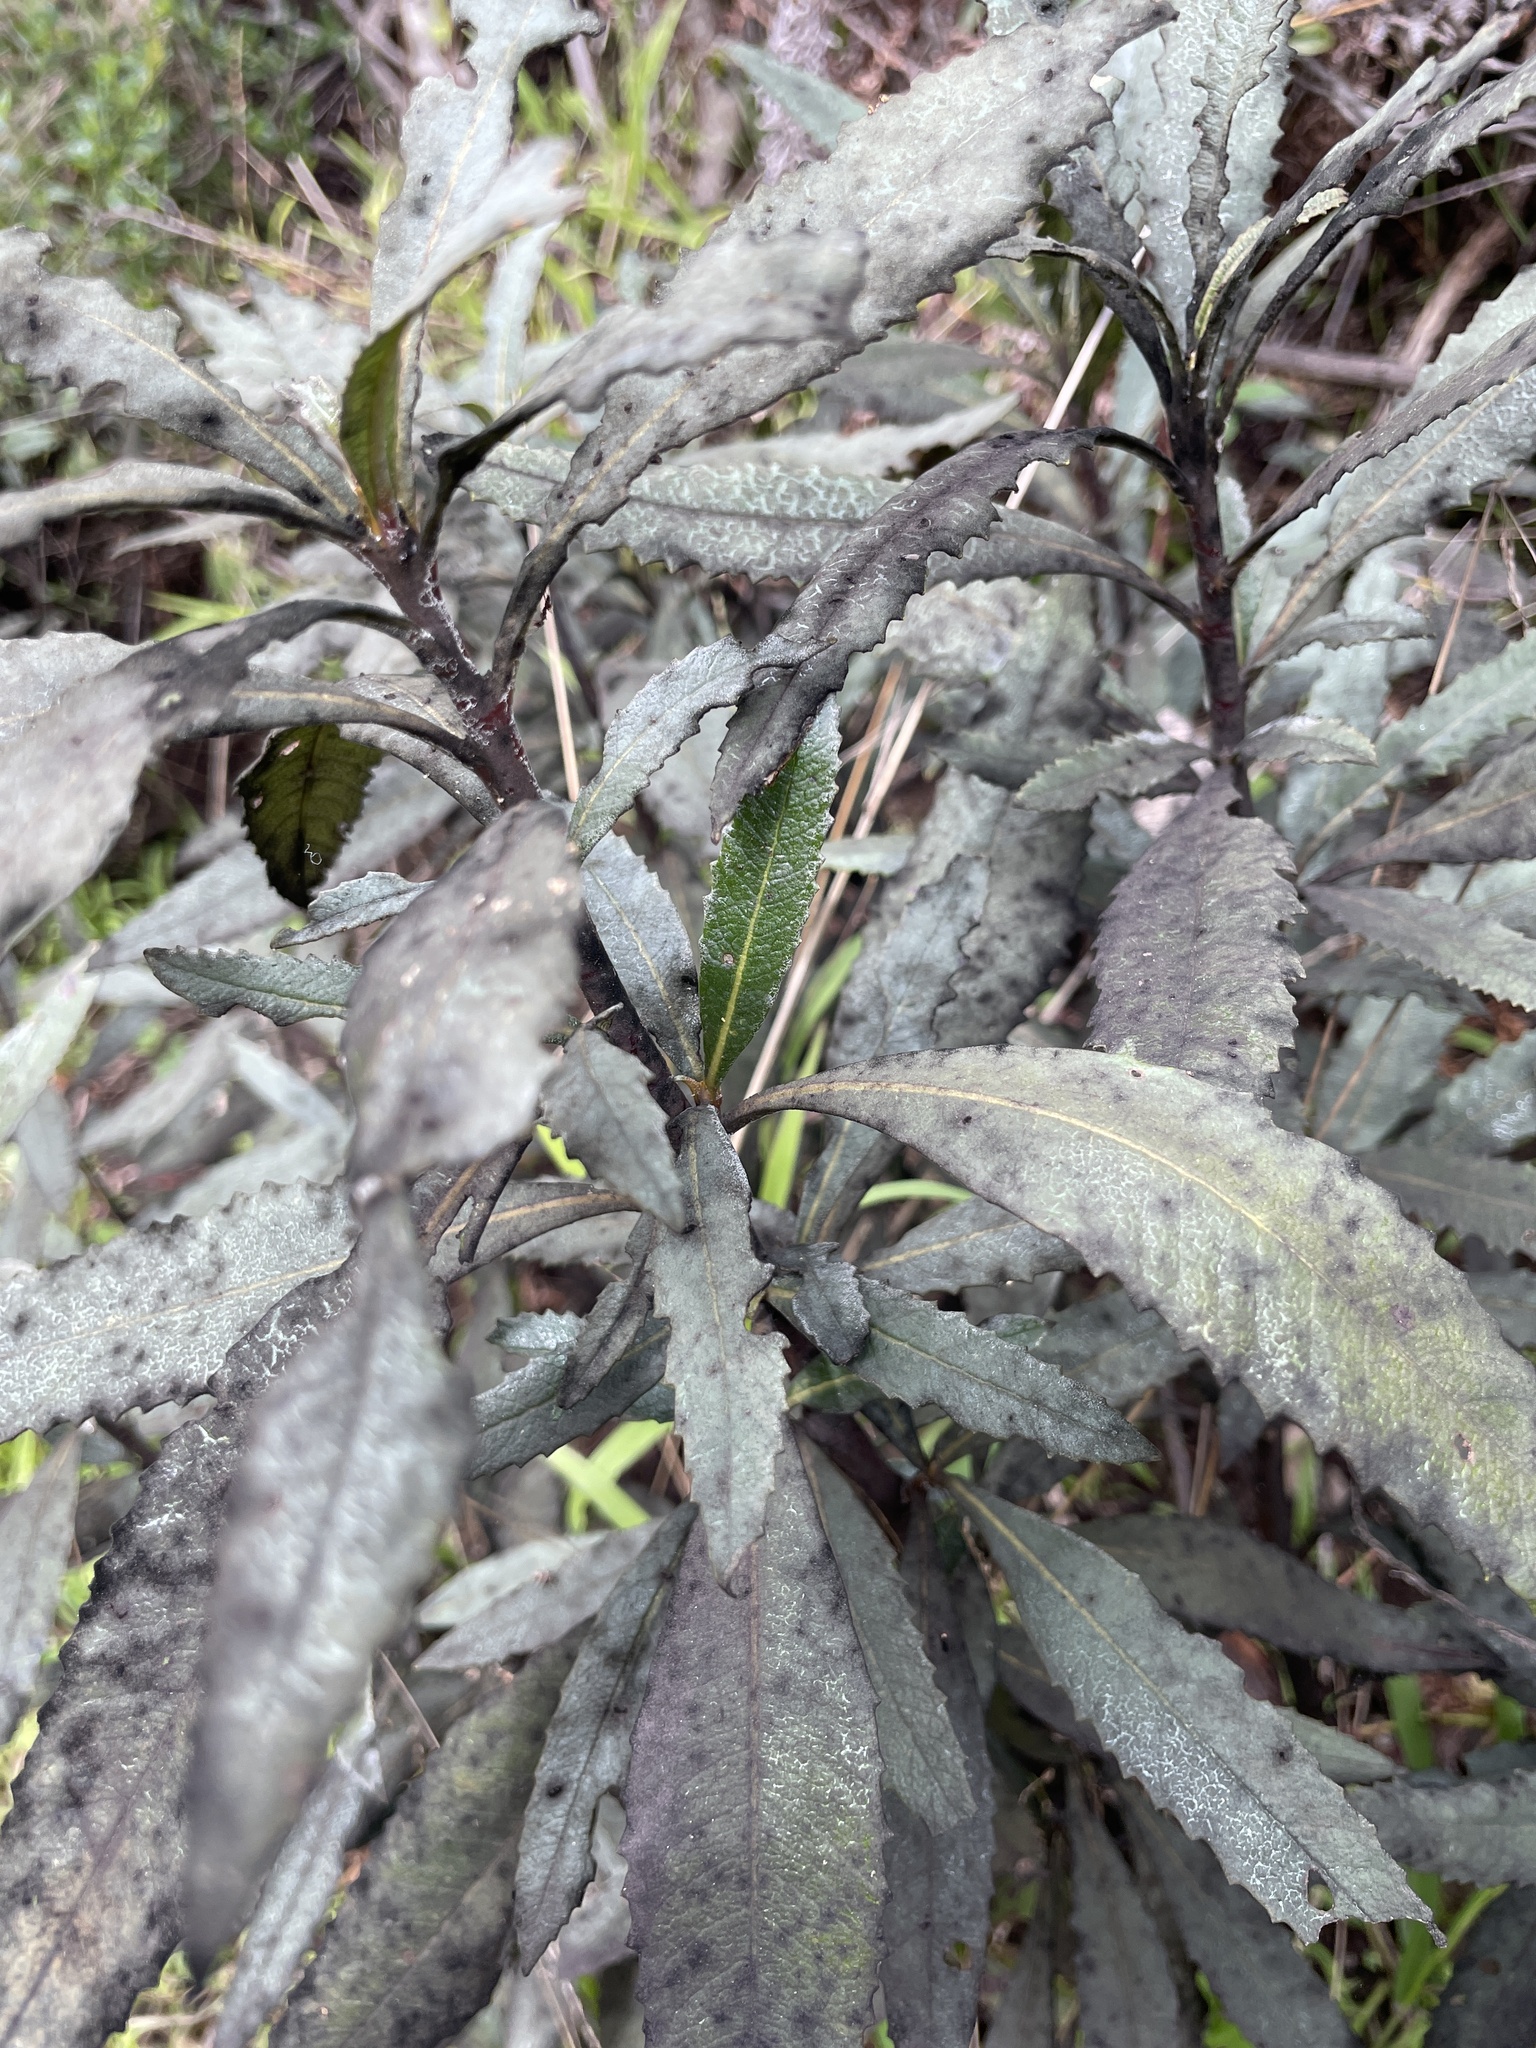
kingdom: Plantae
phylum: Tracheophyta
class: Magnoliopsida
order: Boraginales
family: Namaceae
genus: Eriodictyon
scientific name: Eriodictyon californicum
